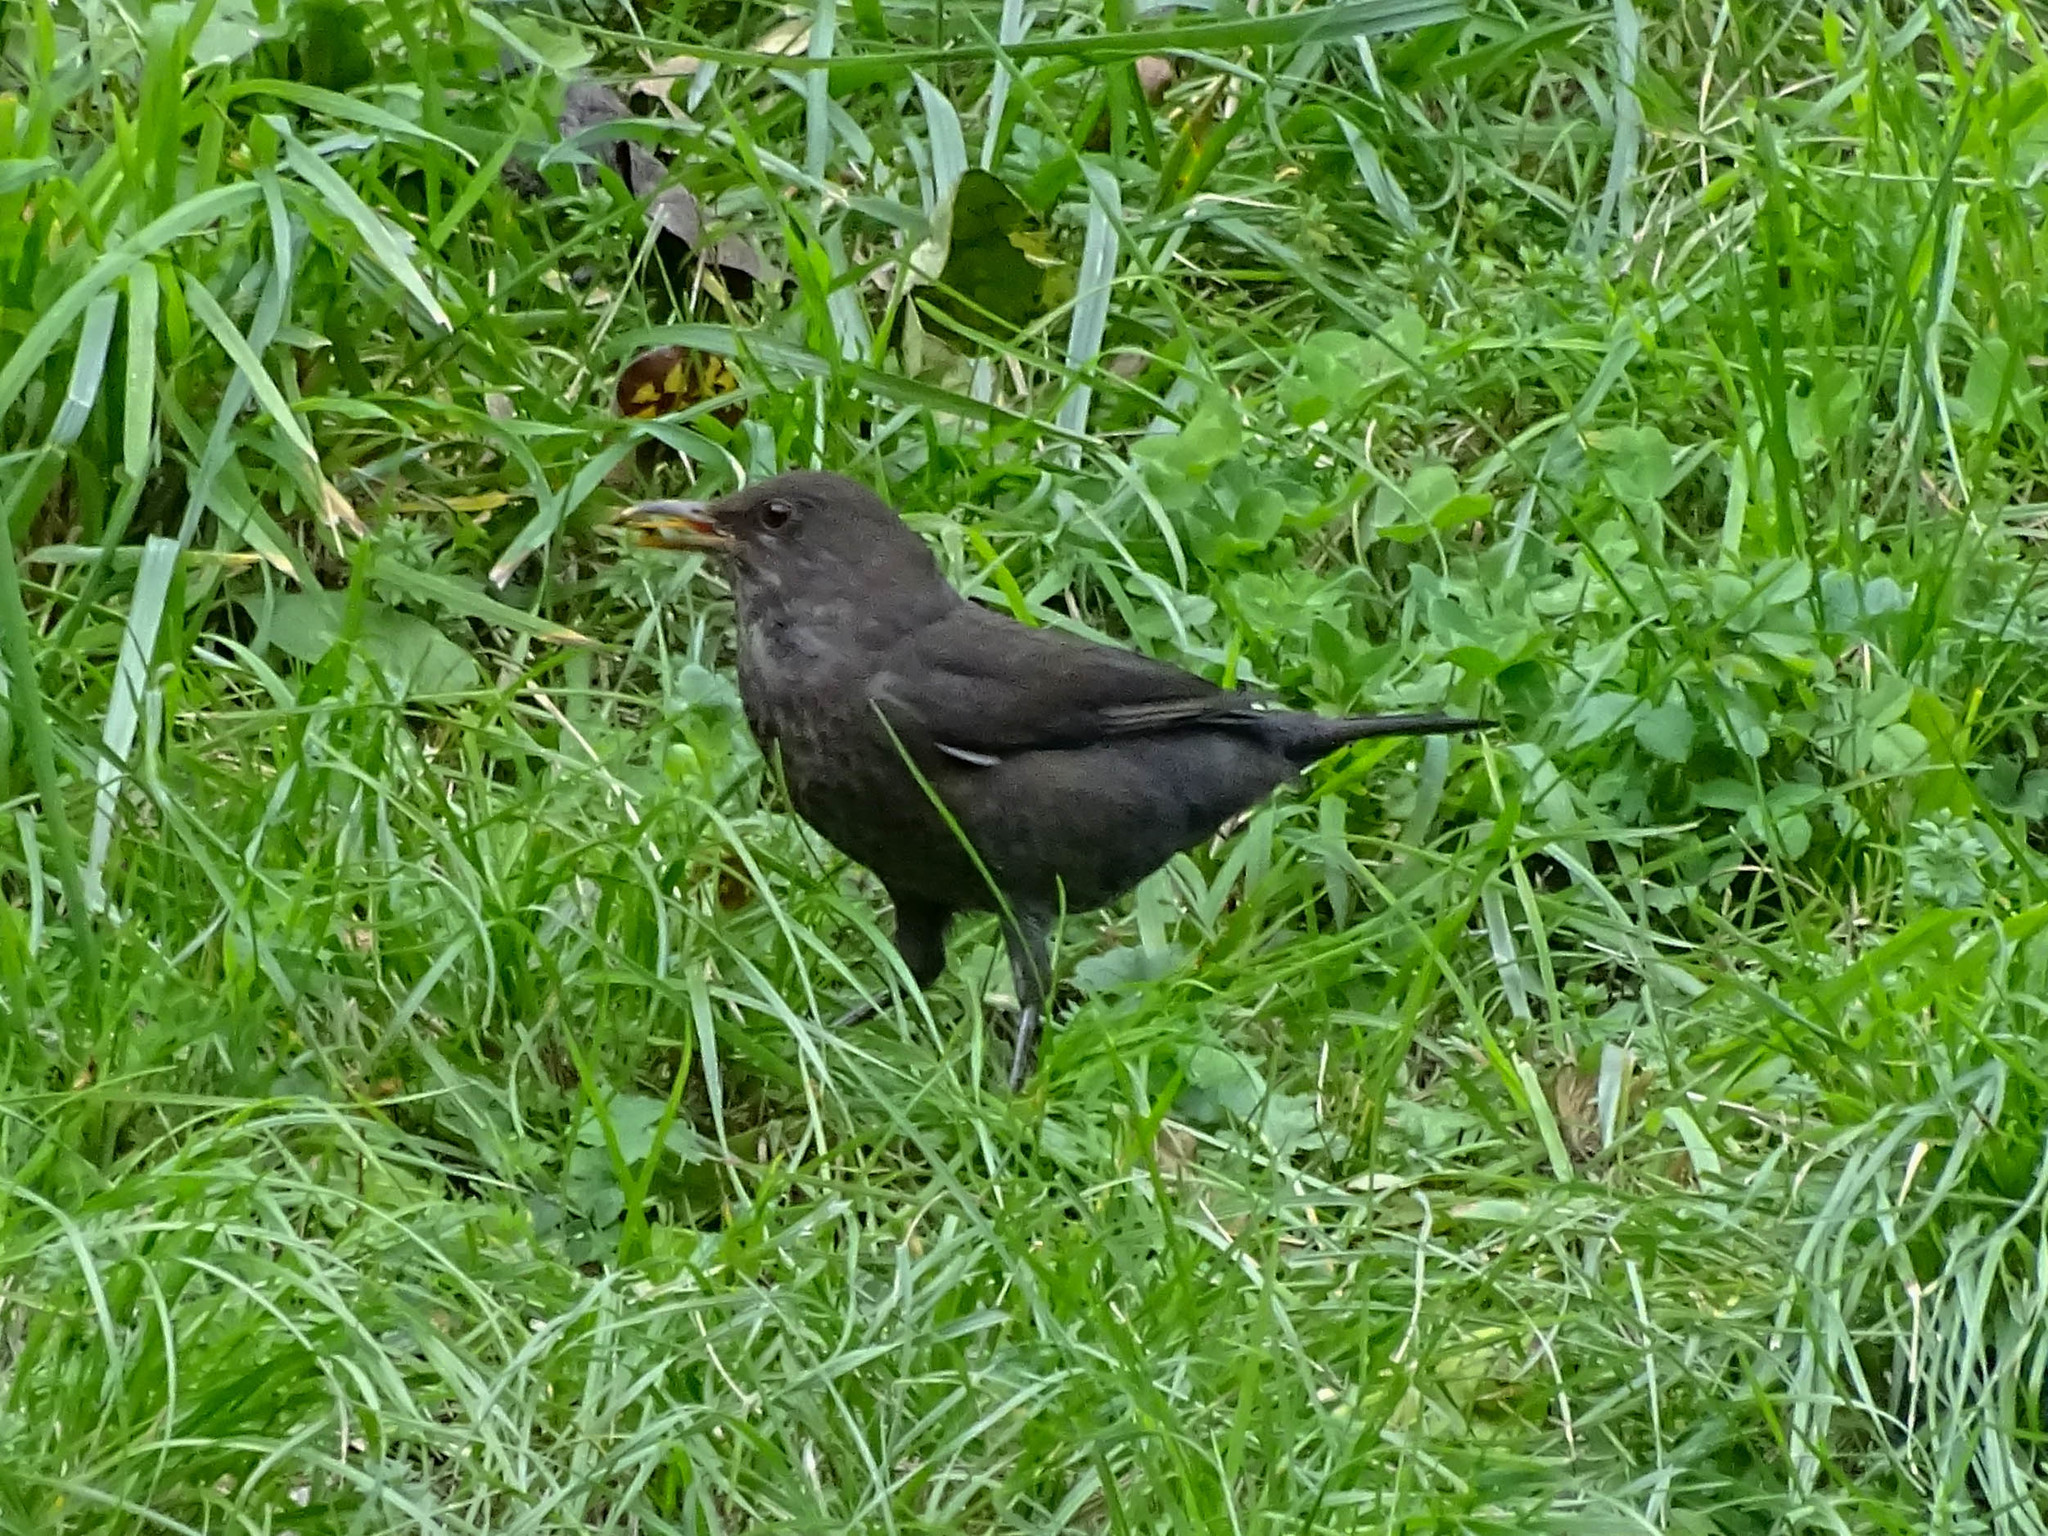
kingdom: Animalia
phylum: Chordata
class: Aves
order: Passeriformes
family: Turdidae
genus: Turdus
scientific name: Turdus merula
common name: Common blackbird
